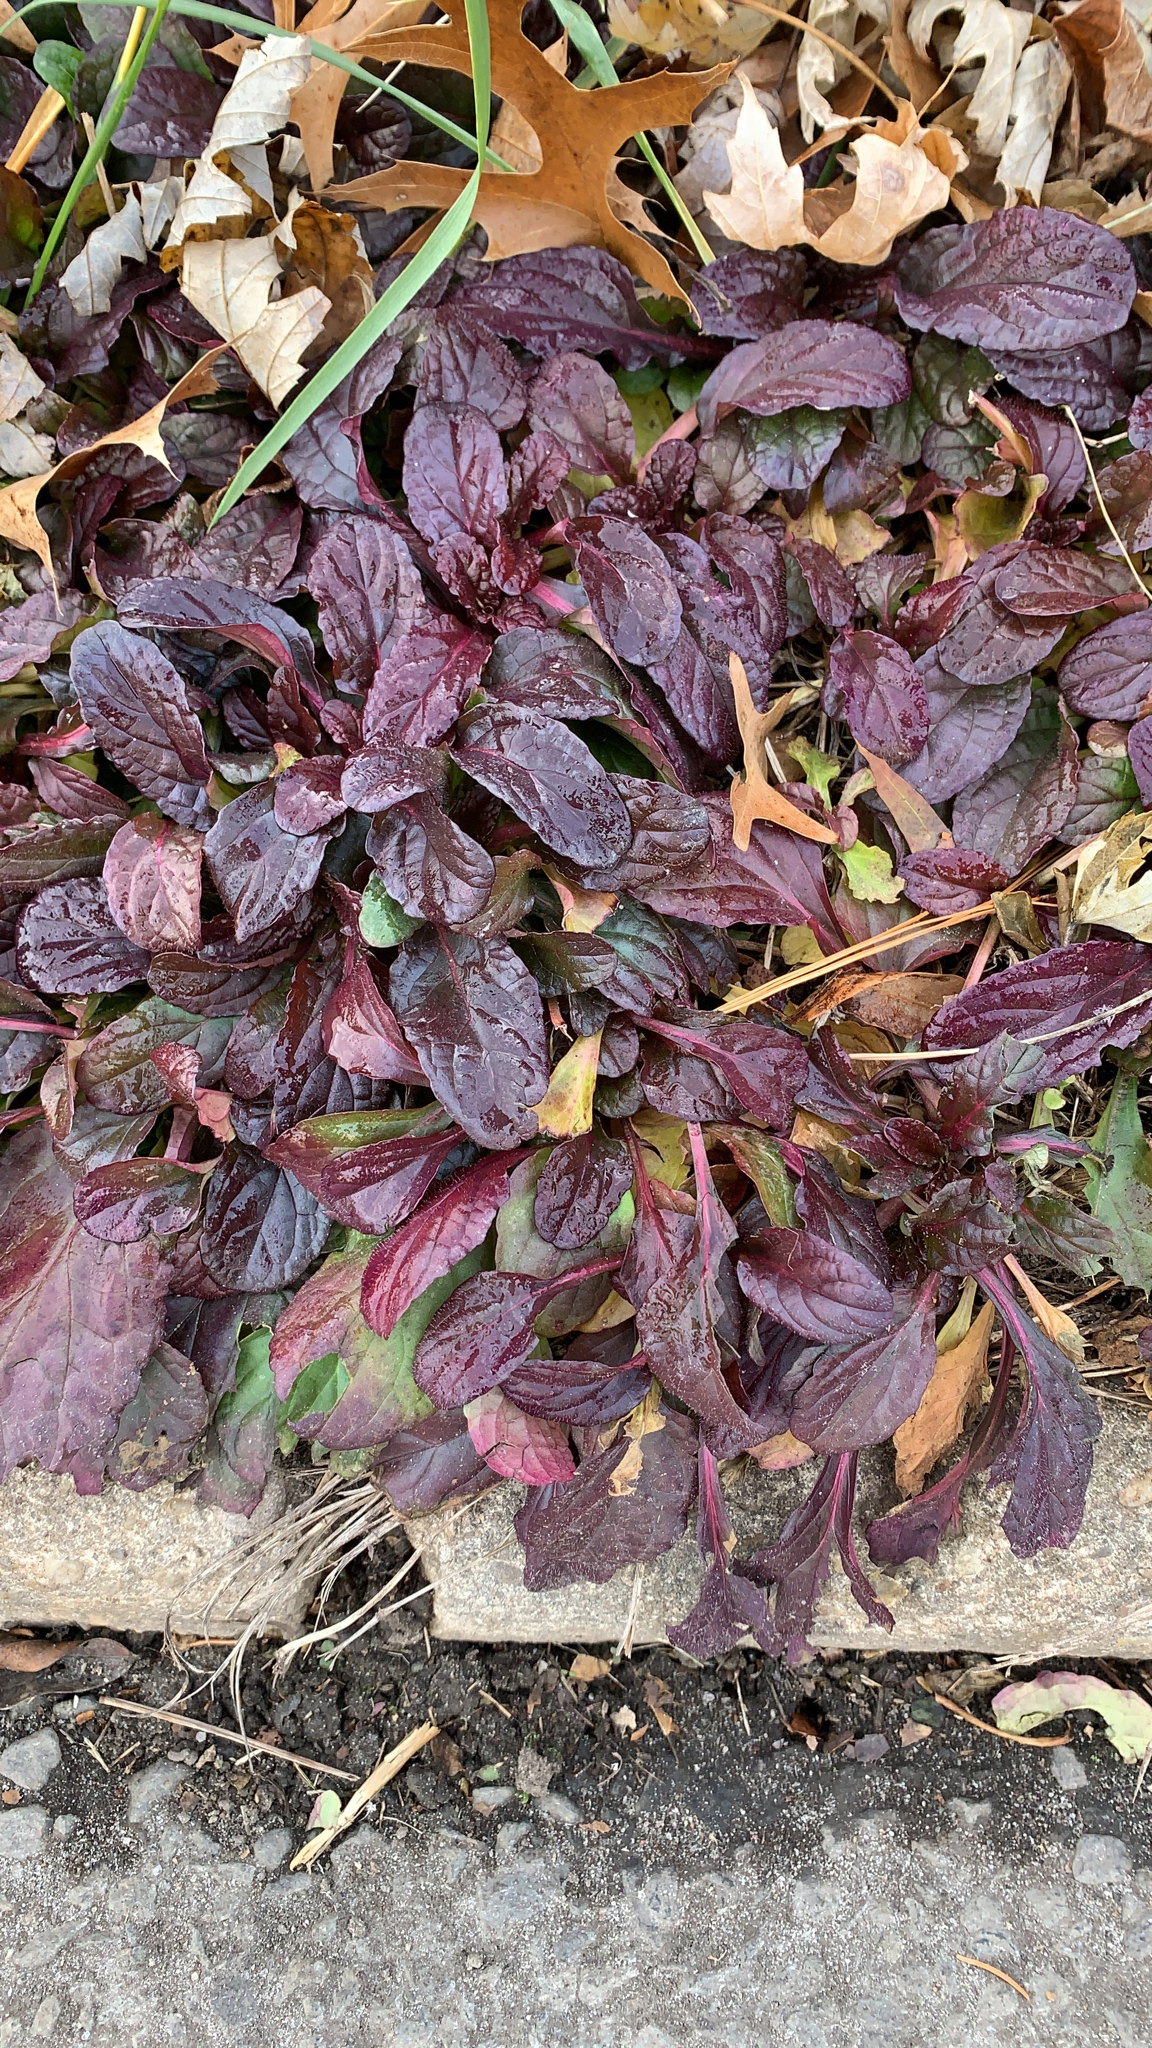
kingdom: Plantae
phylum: Tracheophyta
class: Magnoliopsida
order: Lamiales
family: Lamiaceae
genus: Ajuga
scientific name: Ajuga reptans
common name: Bugle
